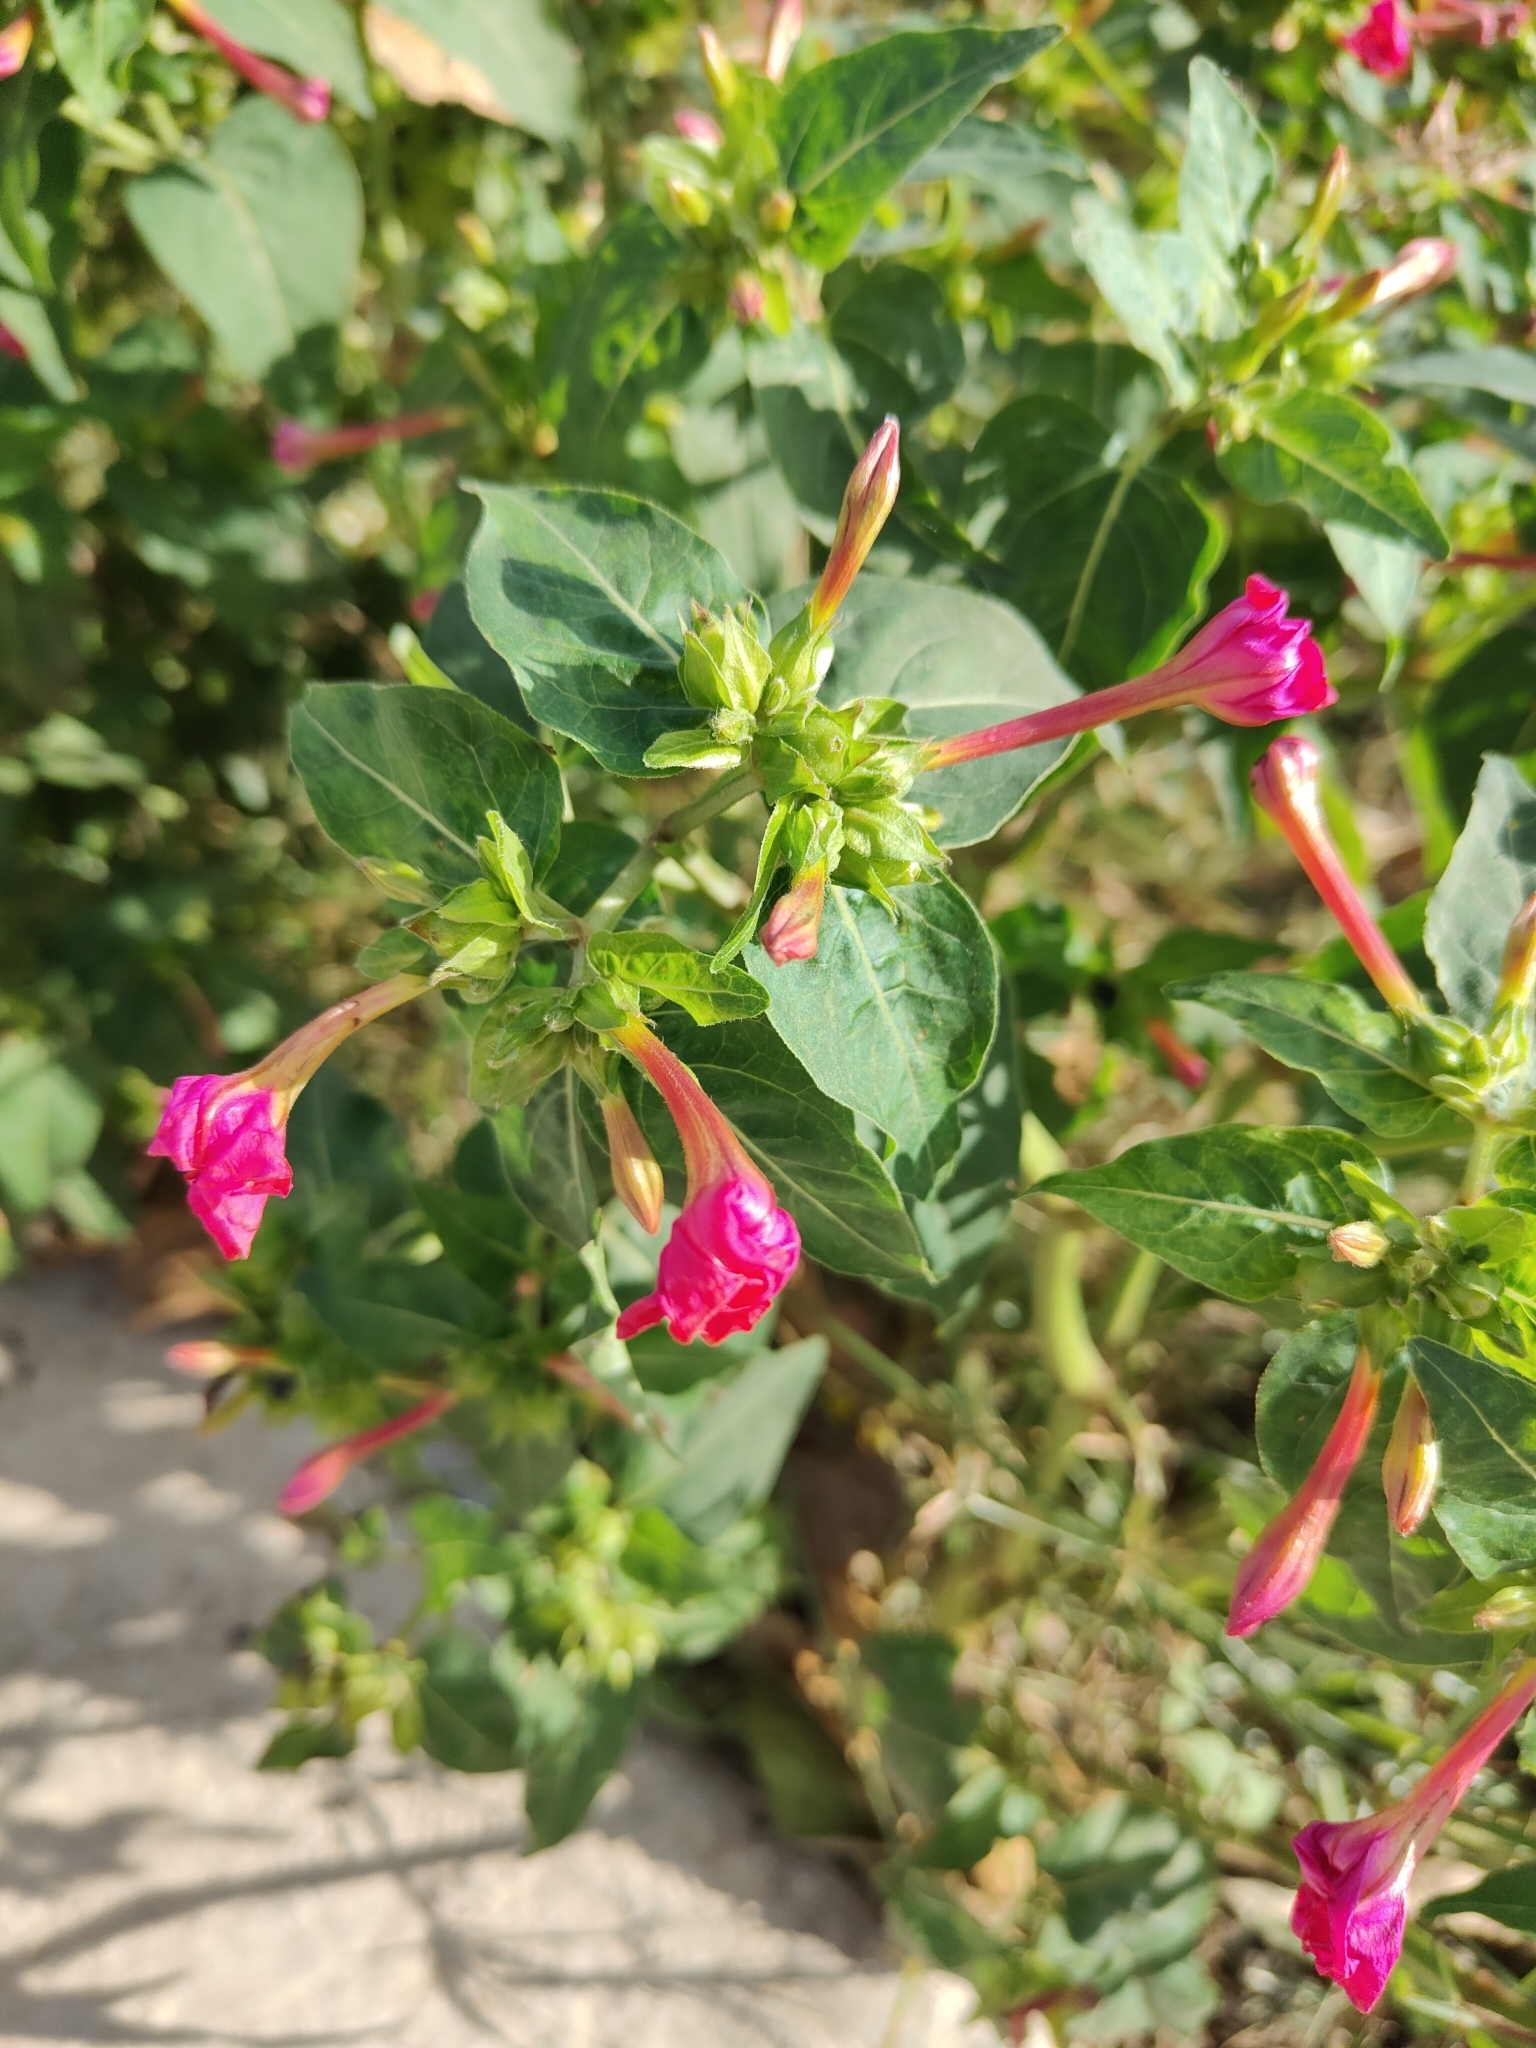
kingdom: Plantae
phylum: Tracheophyta
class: Magnoliopsida
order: Caryophyllales
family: Nyctaginaceae
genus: Mirabilis
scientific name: Mirabilis jalapa
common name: Marvel-of-peru
